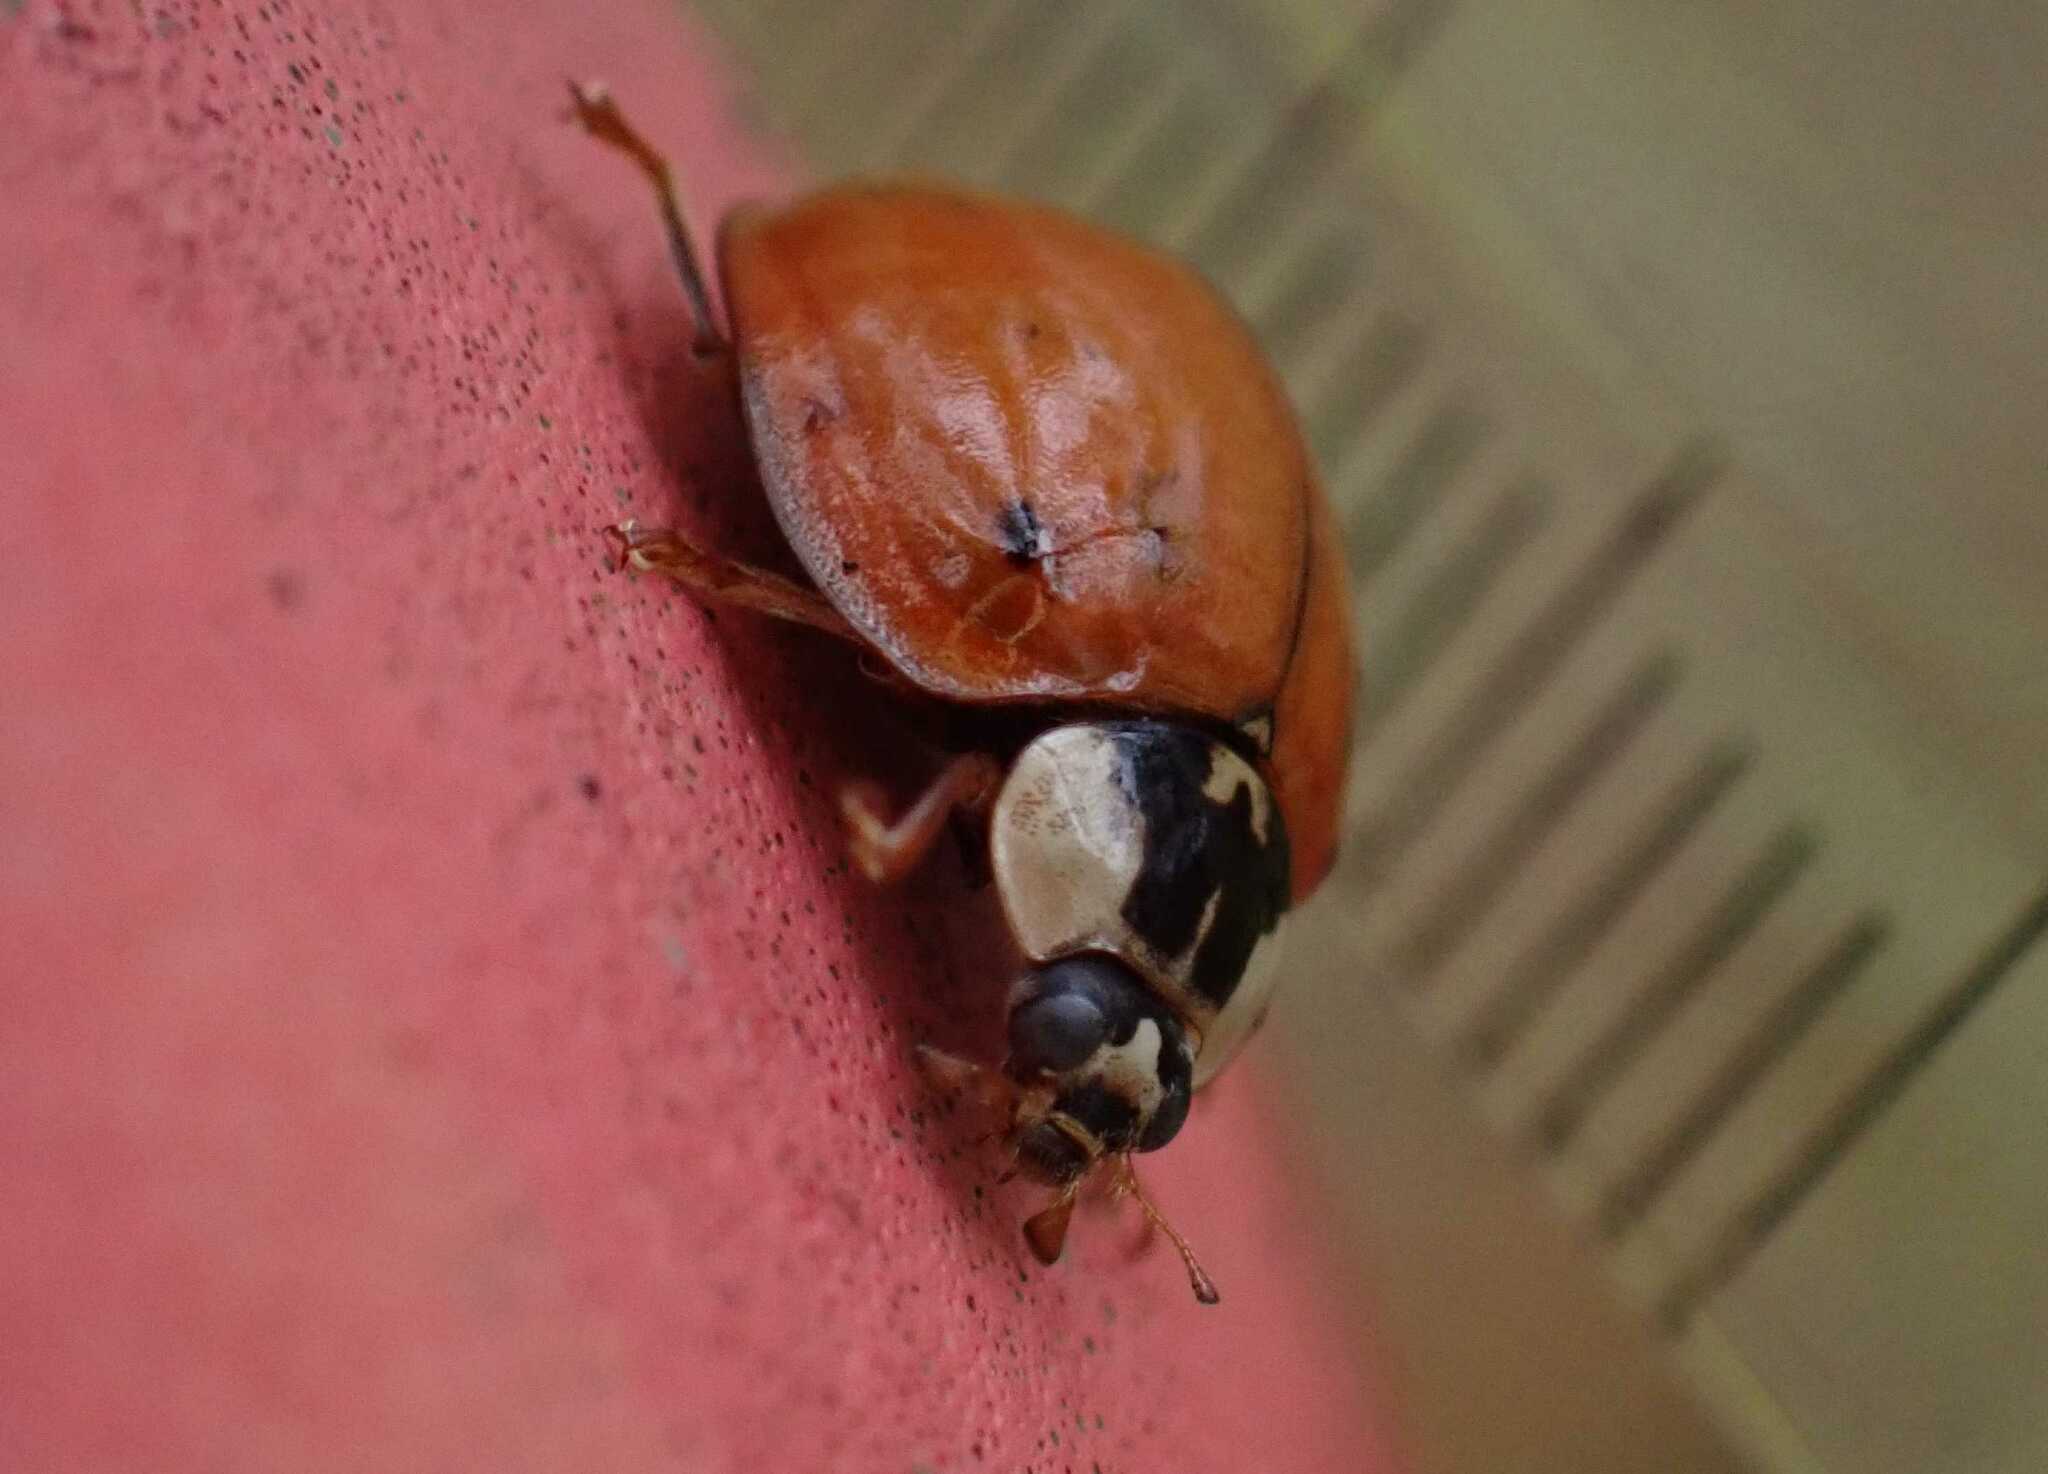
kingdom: Animalia
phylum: Arthropoda
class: Insecta
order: Coleoptera
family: Coccinellidae
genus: Harmonia
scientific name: Harmonia axyridis
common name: Harlequin ladybird
